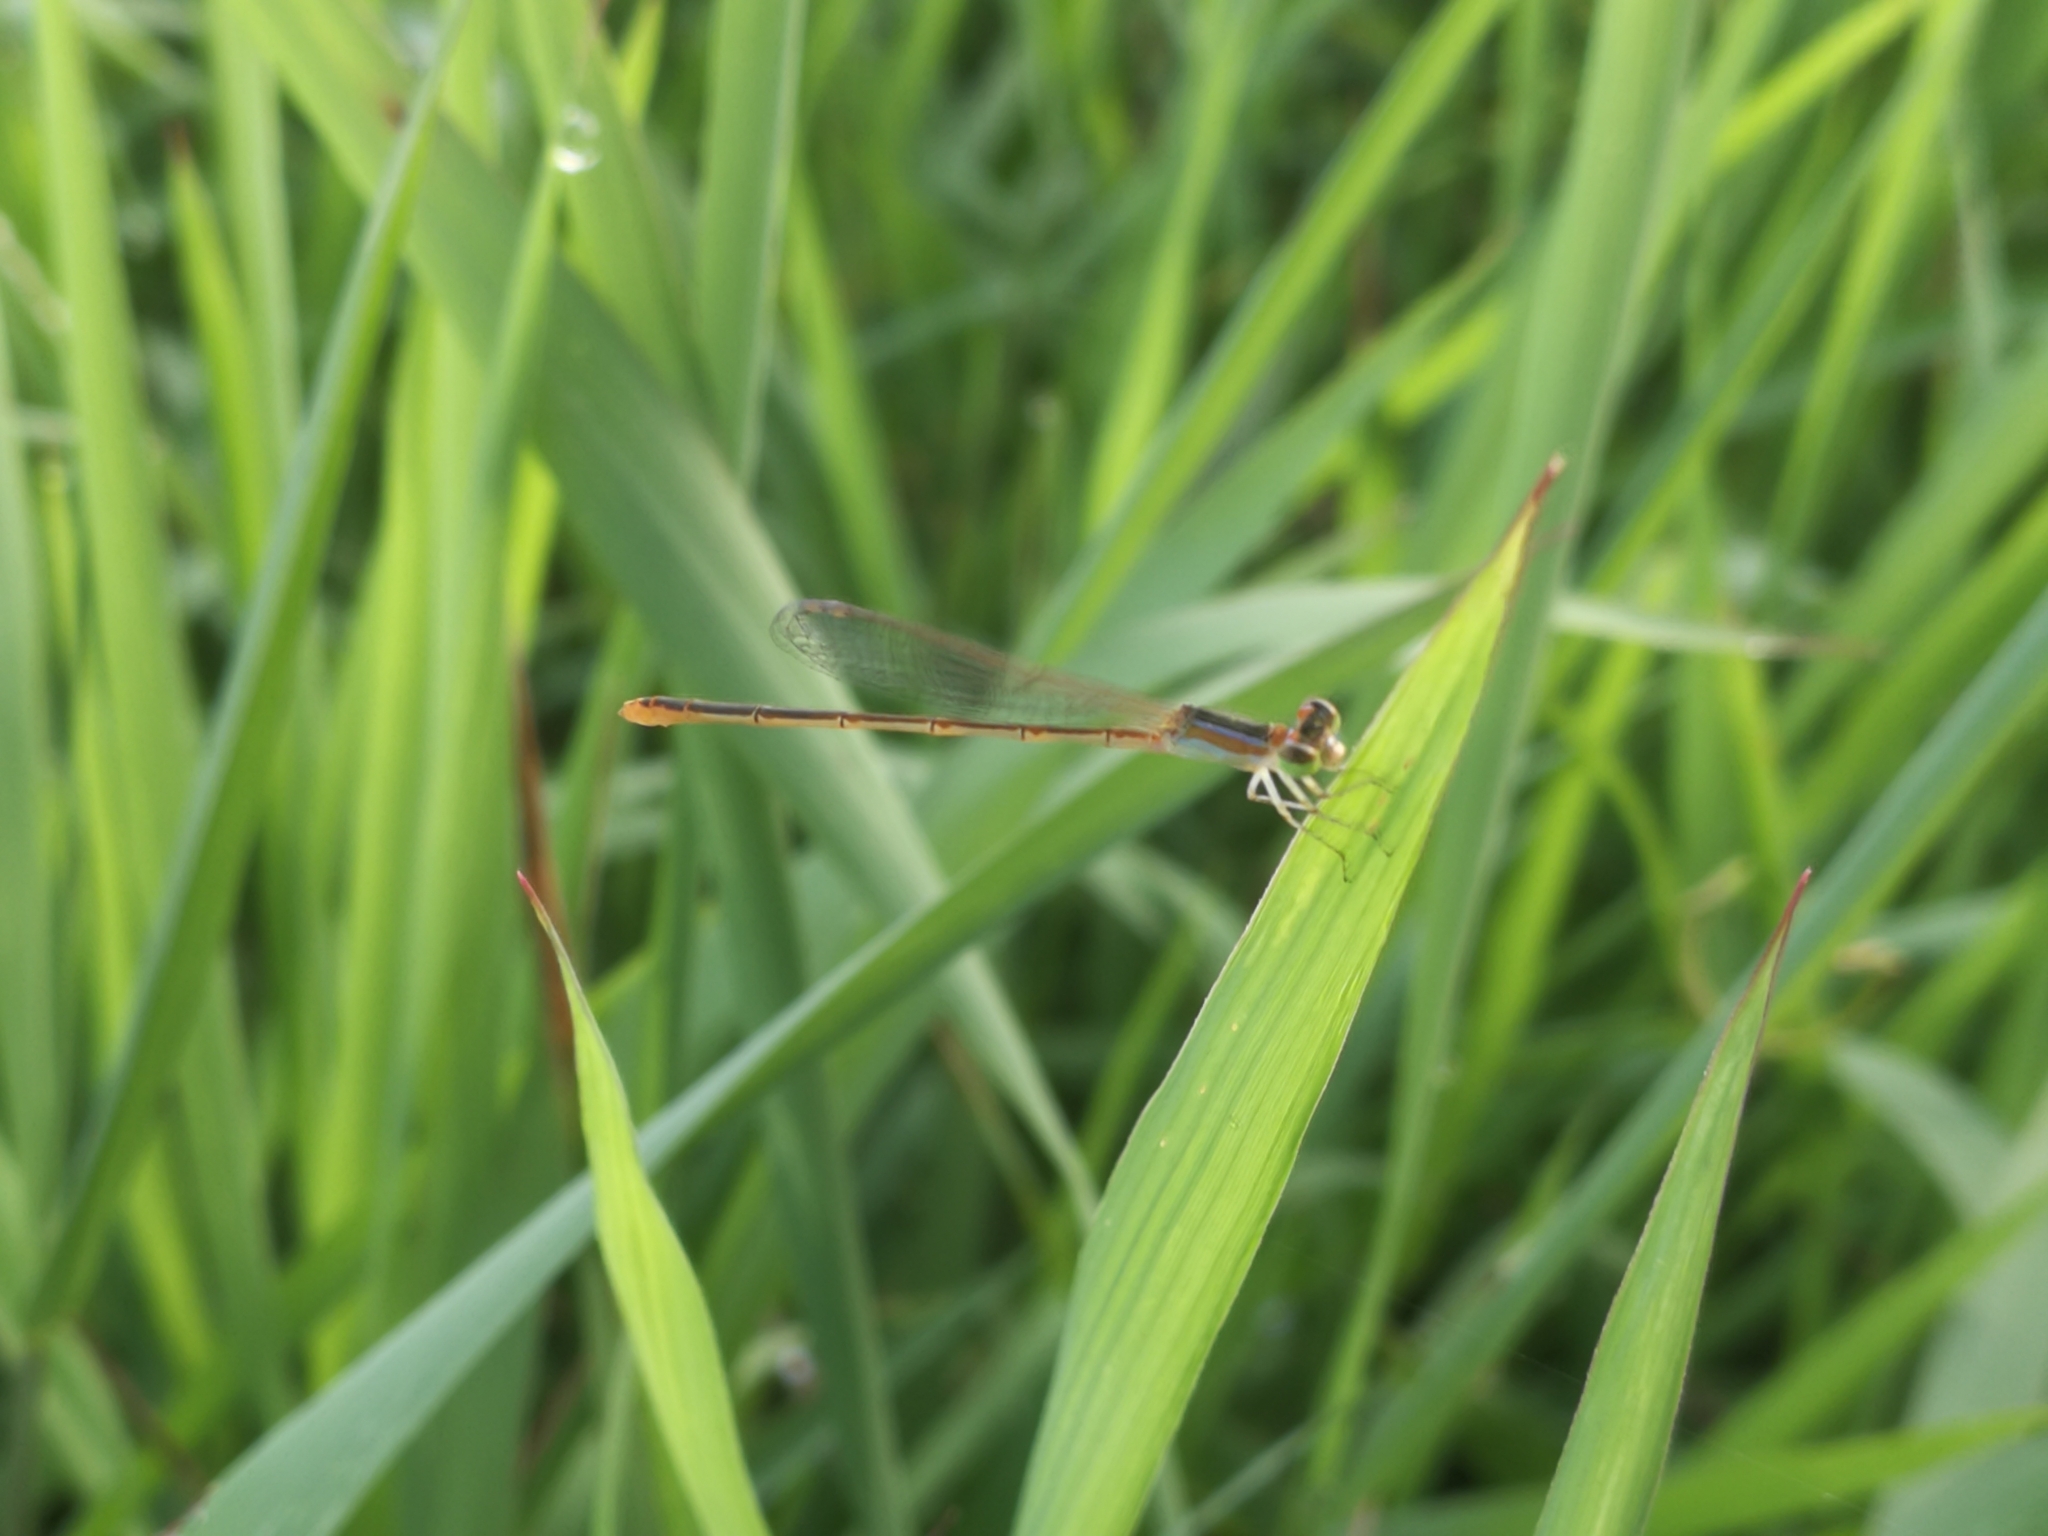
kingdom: Animalia
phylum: Arthropoda
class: Insecta
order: Odonata
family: Coenagrionidae
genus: Agriocnemis
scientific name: Agriocnemis pygmaea
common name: Pygmy wisp
